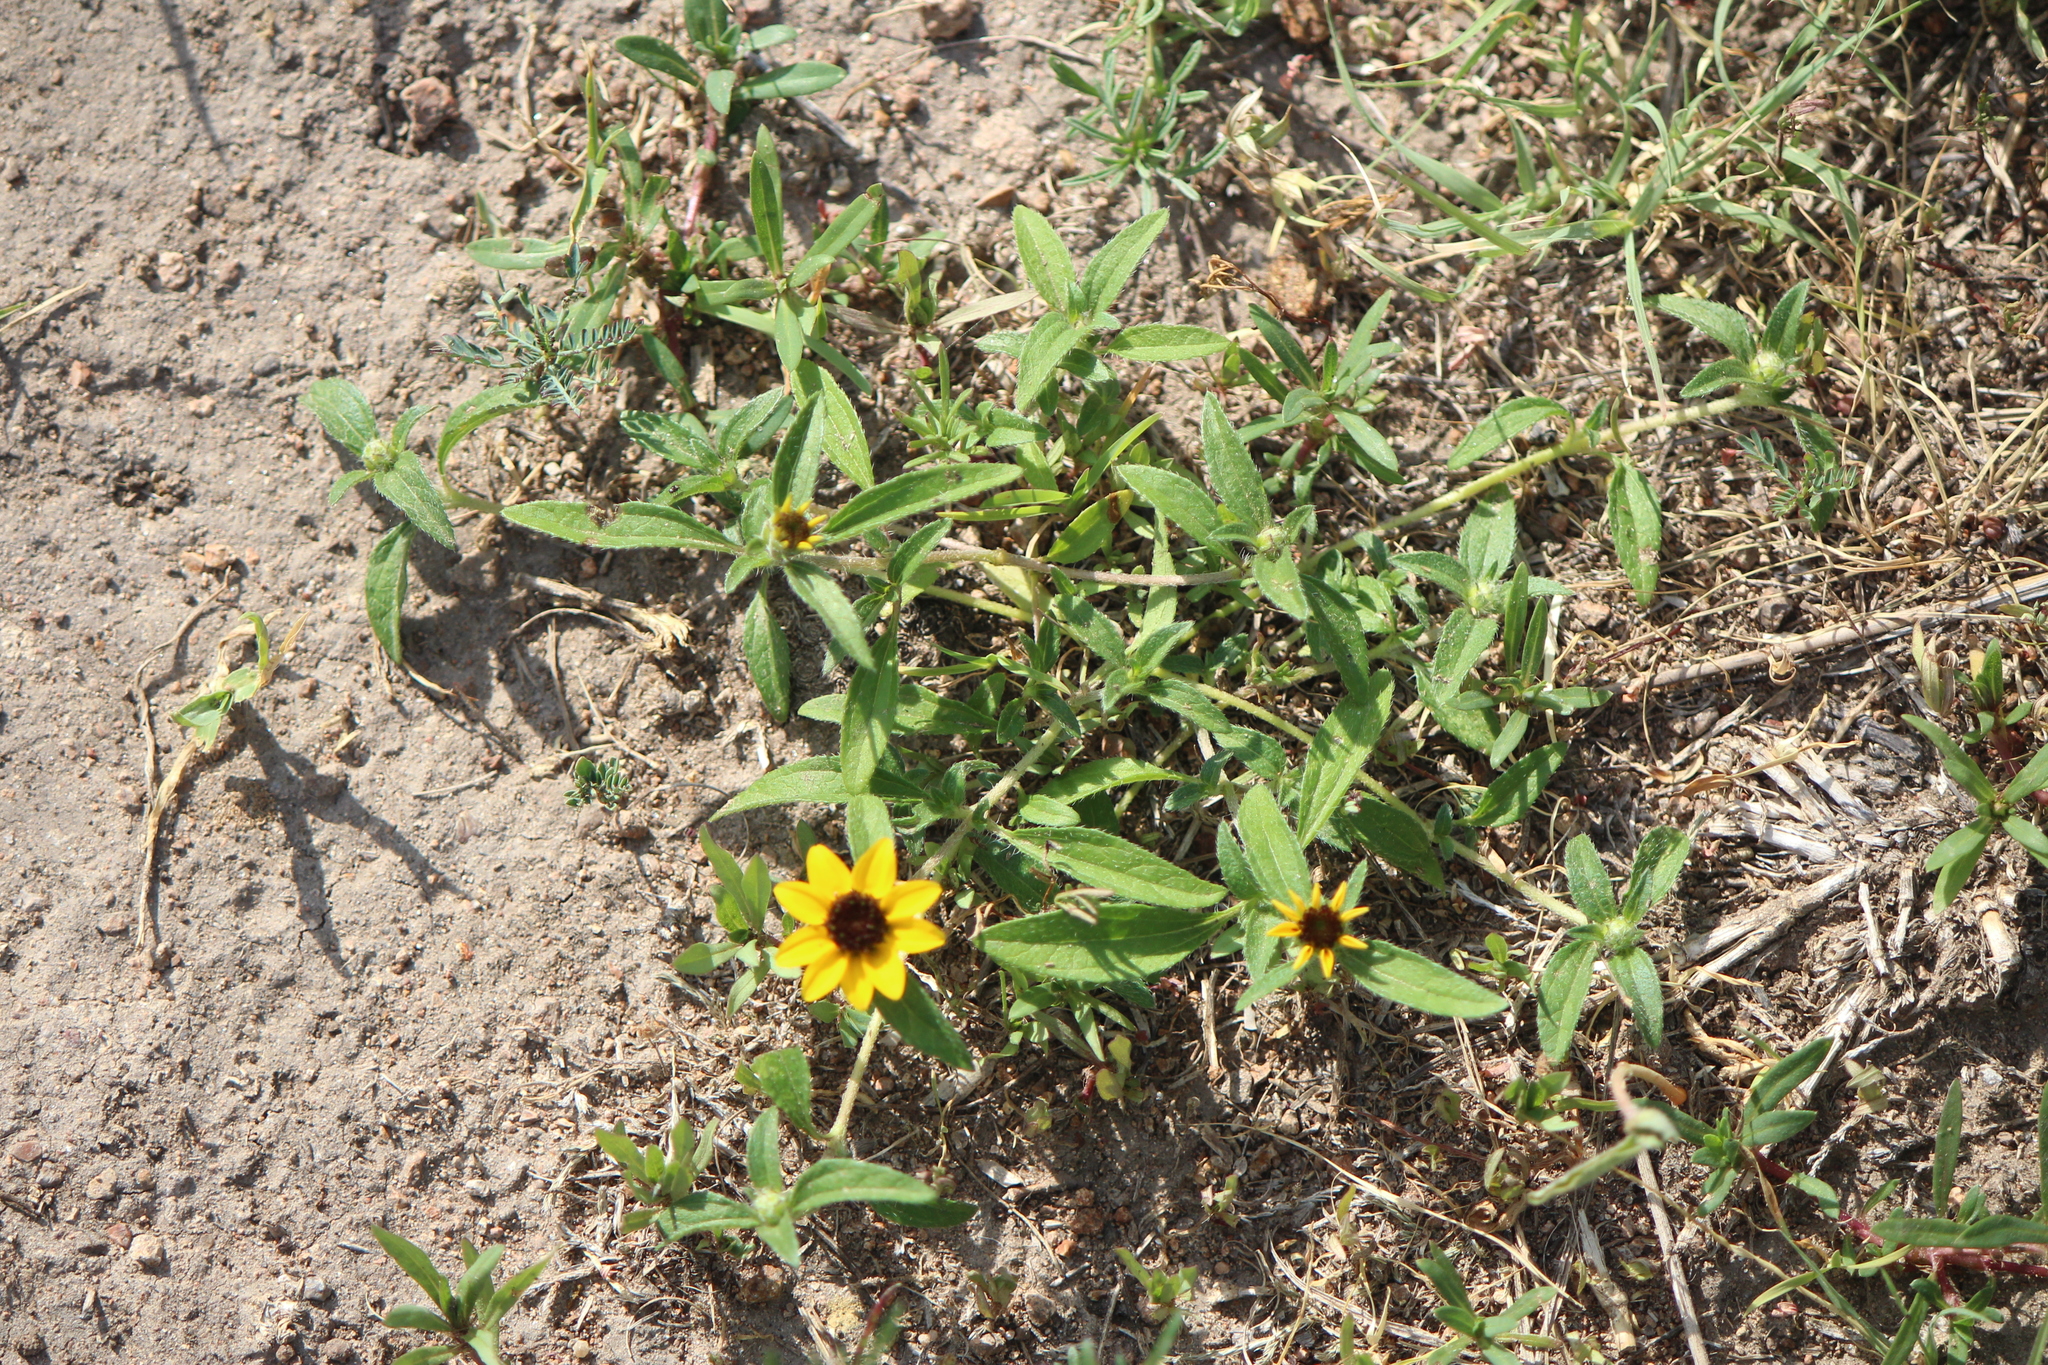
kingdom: Plantae
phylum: Tracheophyta
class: Magnoliopsida
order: Asterales
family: Asteraceae
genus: Sanvitalia
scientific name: Sanvitalia procumbens
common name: Mexican creeping zinnia
